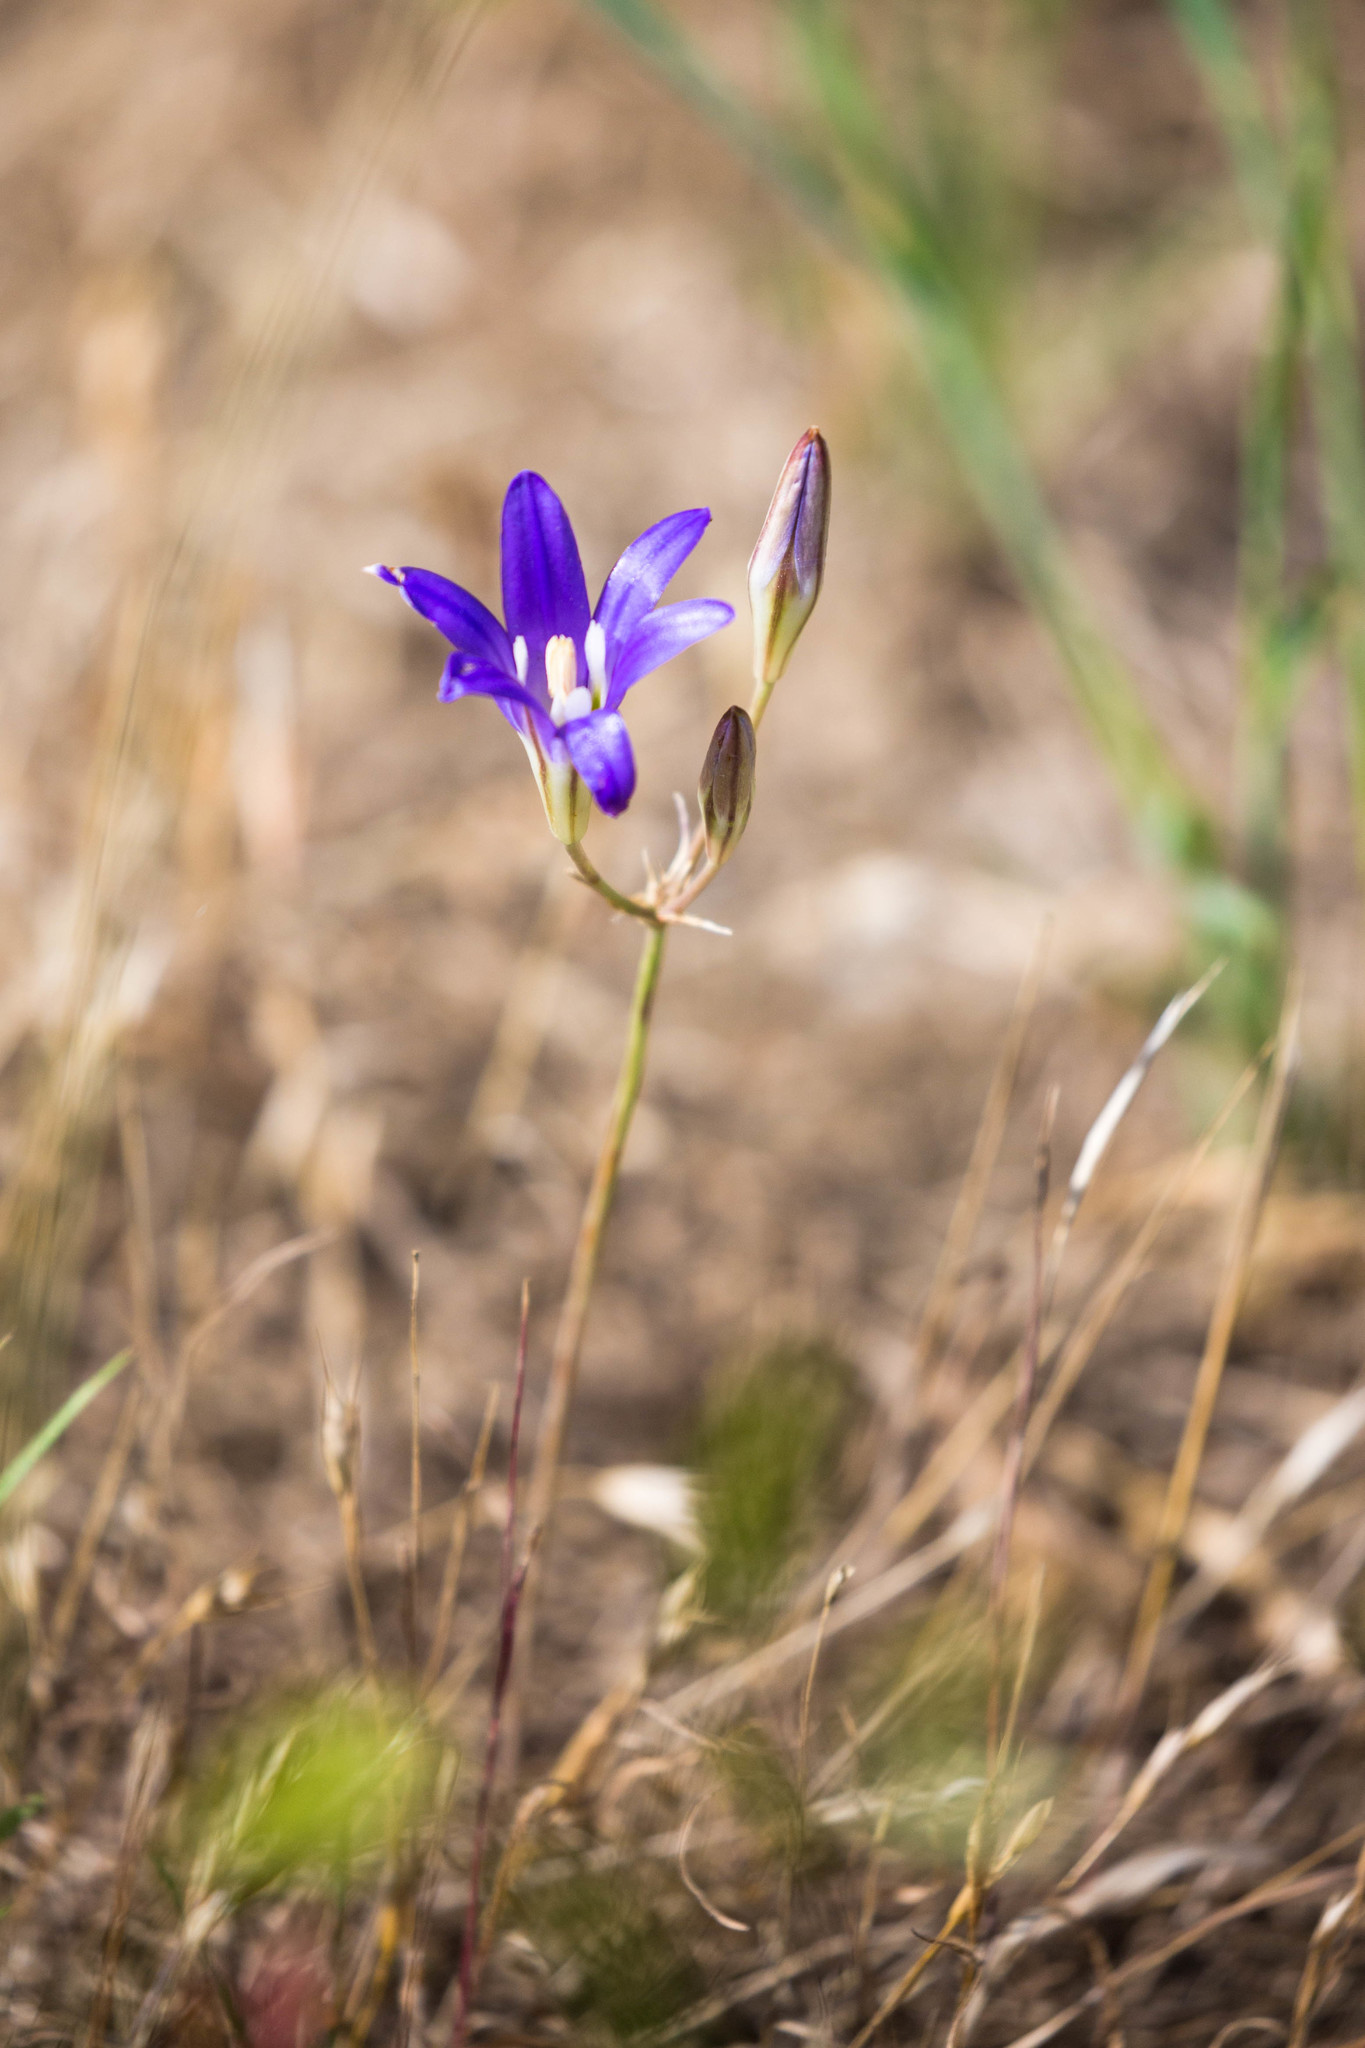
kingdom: Plantae
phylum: Tracheophyta
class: Liliopsida
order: Asparagales
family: Asparagaceae
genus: Brodiaea
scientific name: Brodiaea elegans
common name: Elegant cluster-lily
